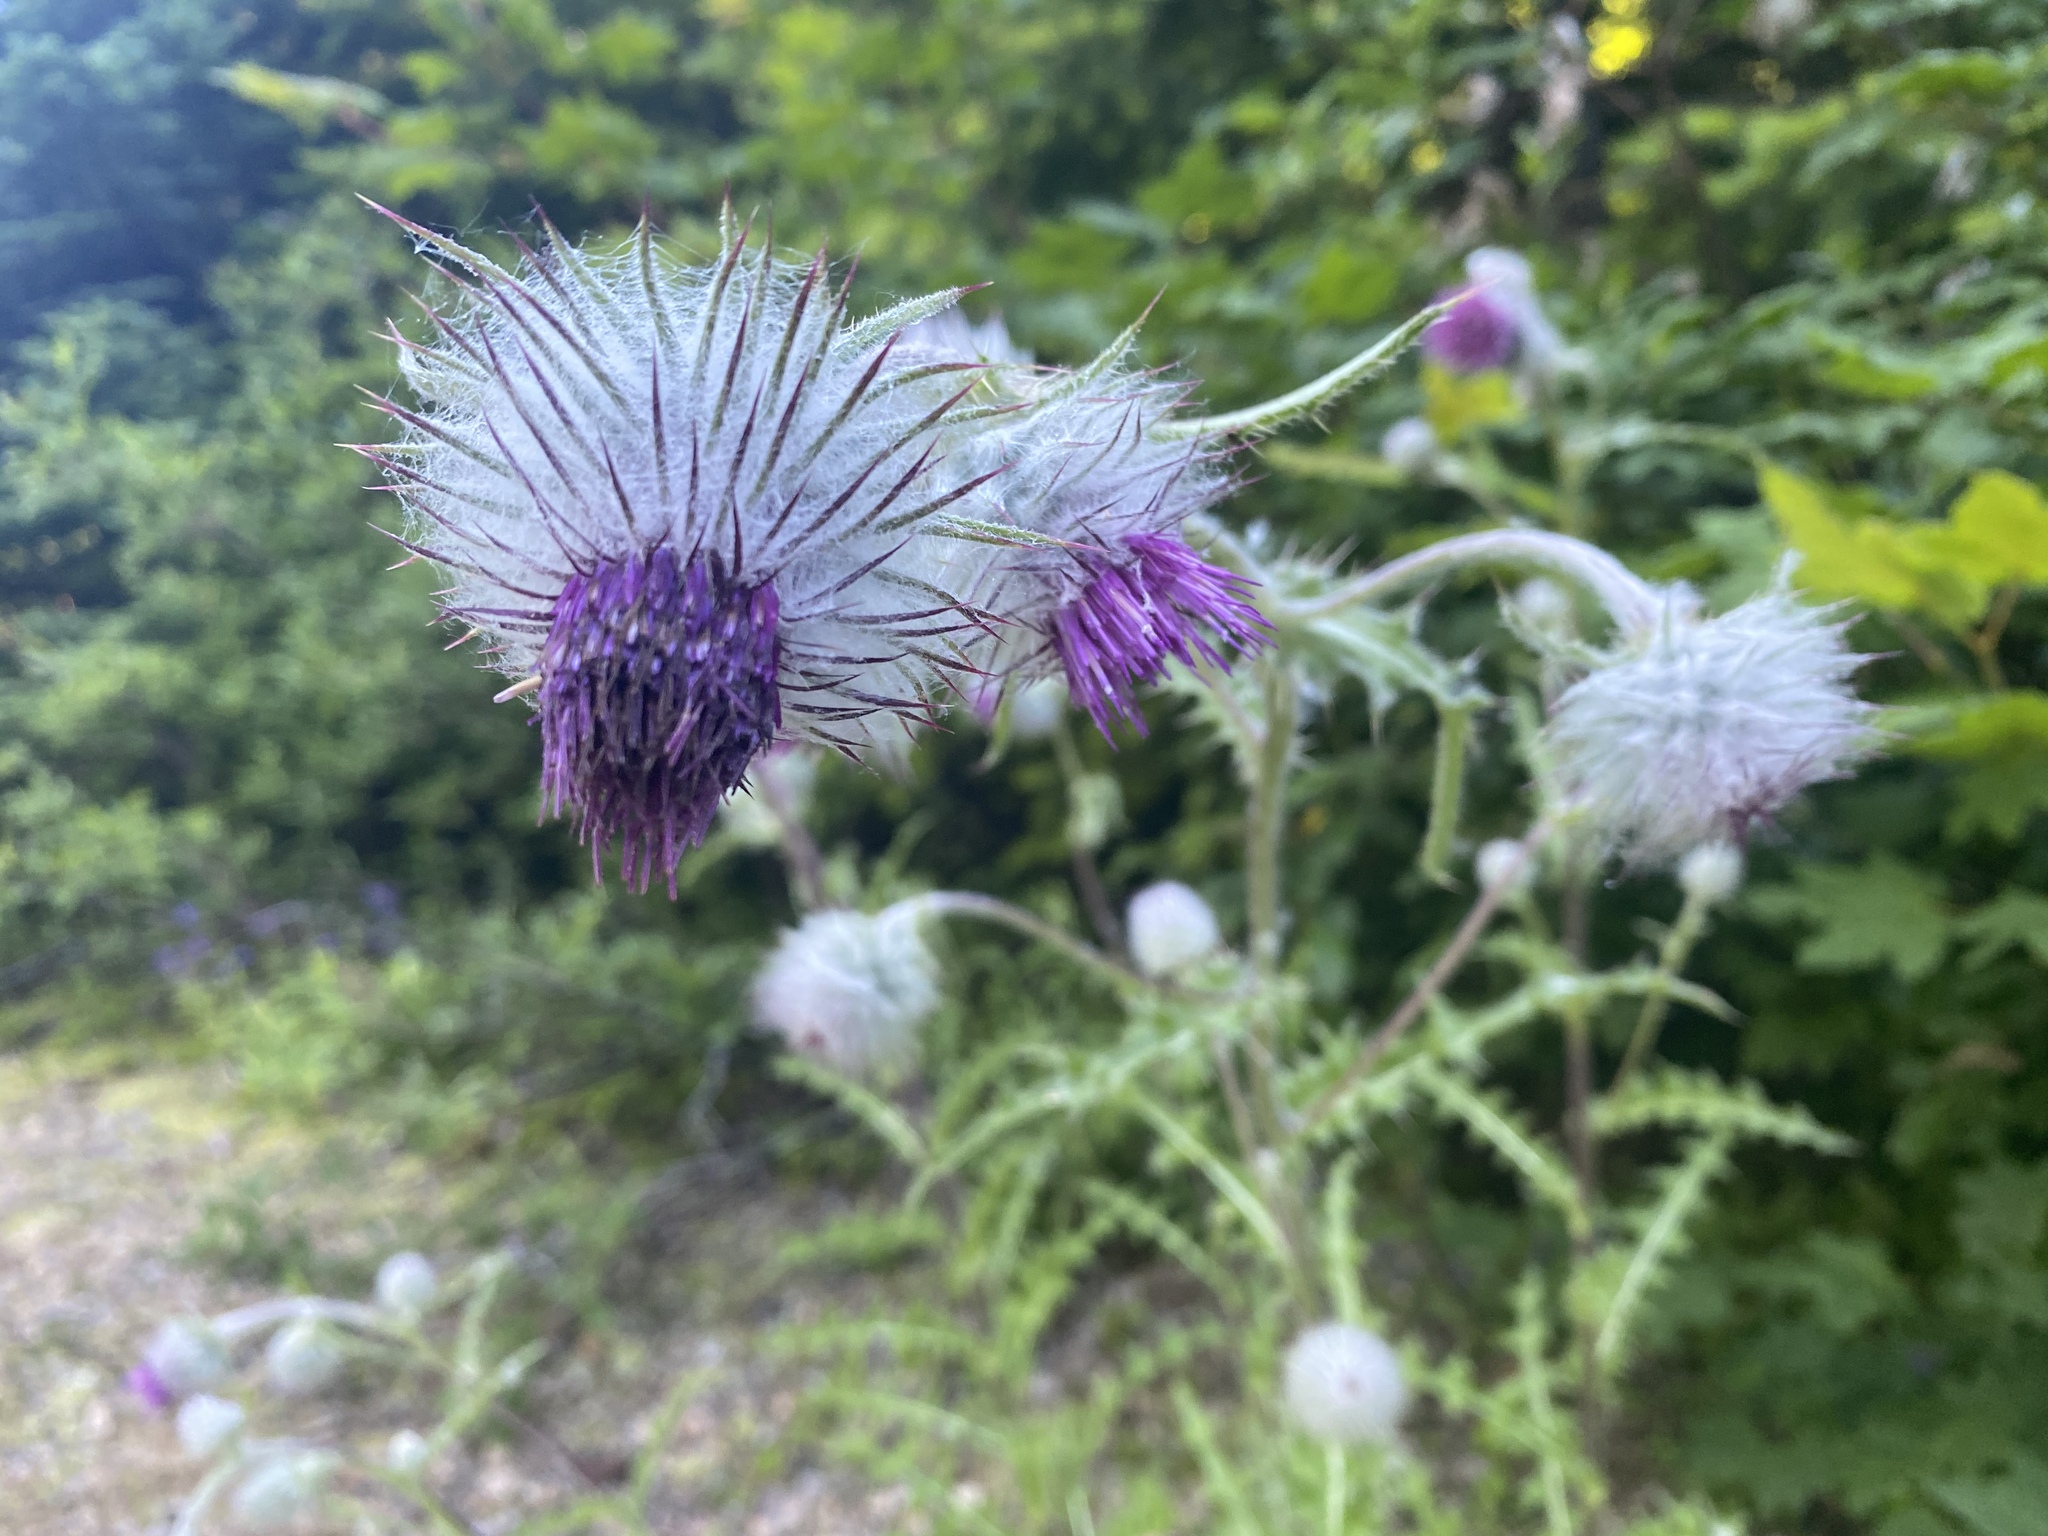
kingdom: Plantae
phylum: Tracheophyta
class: Magnoliopsida
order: Asterales
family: Asteraceae
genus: Cirsium
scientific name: Cirsium edule
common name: Indian thistle
